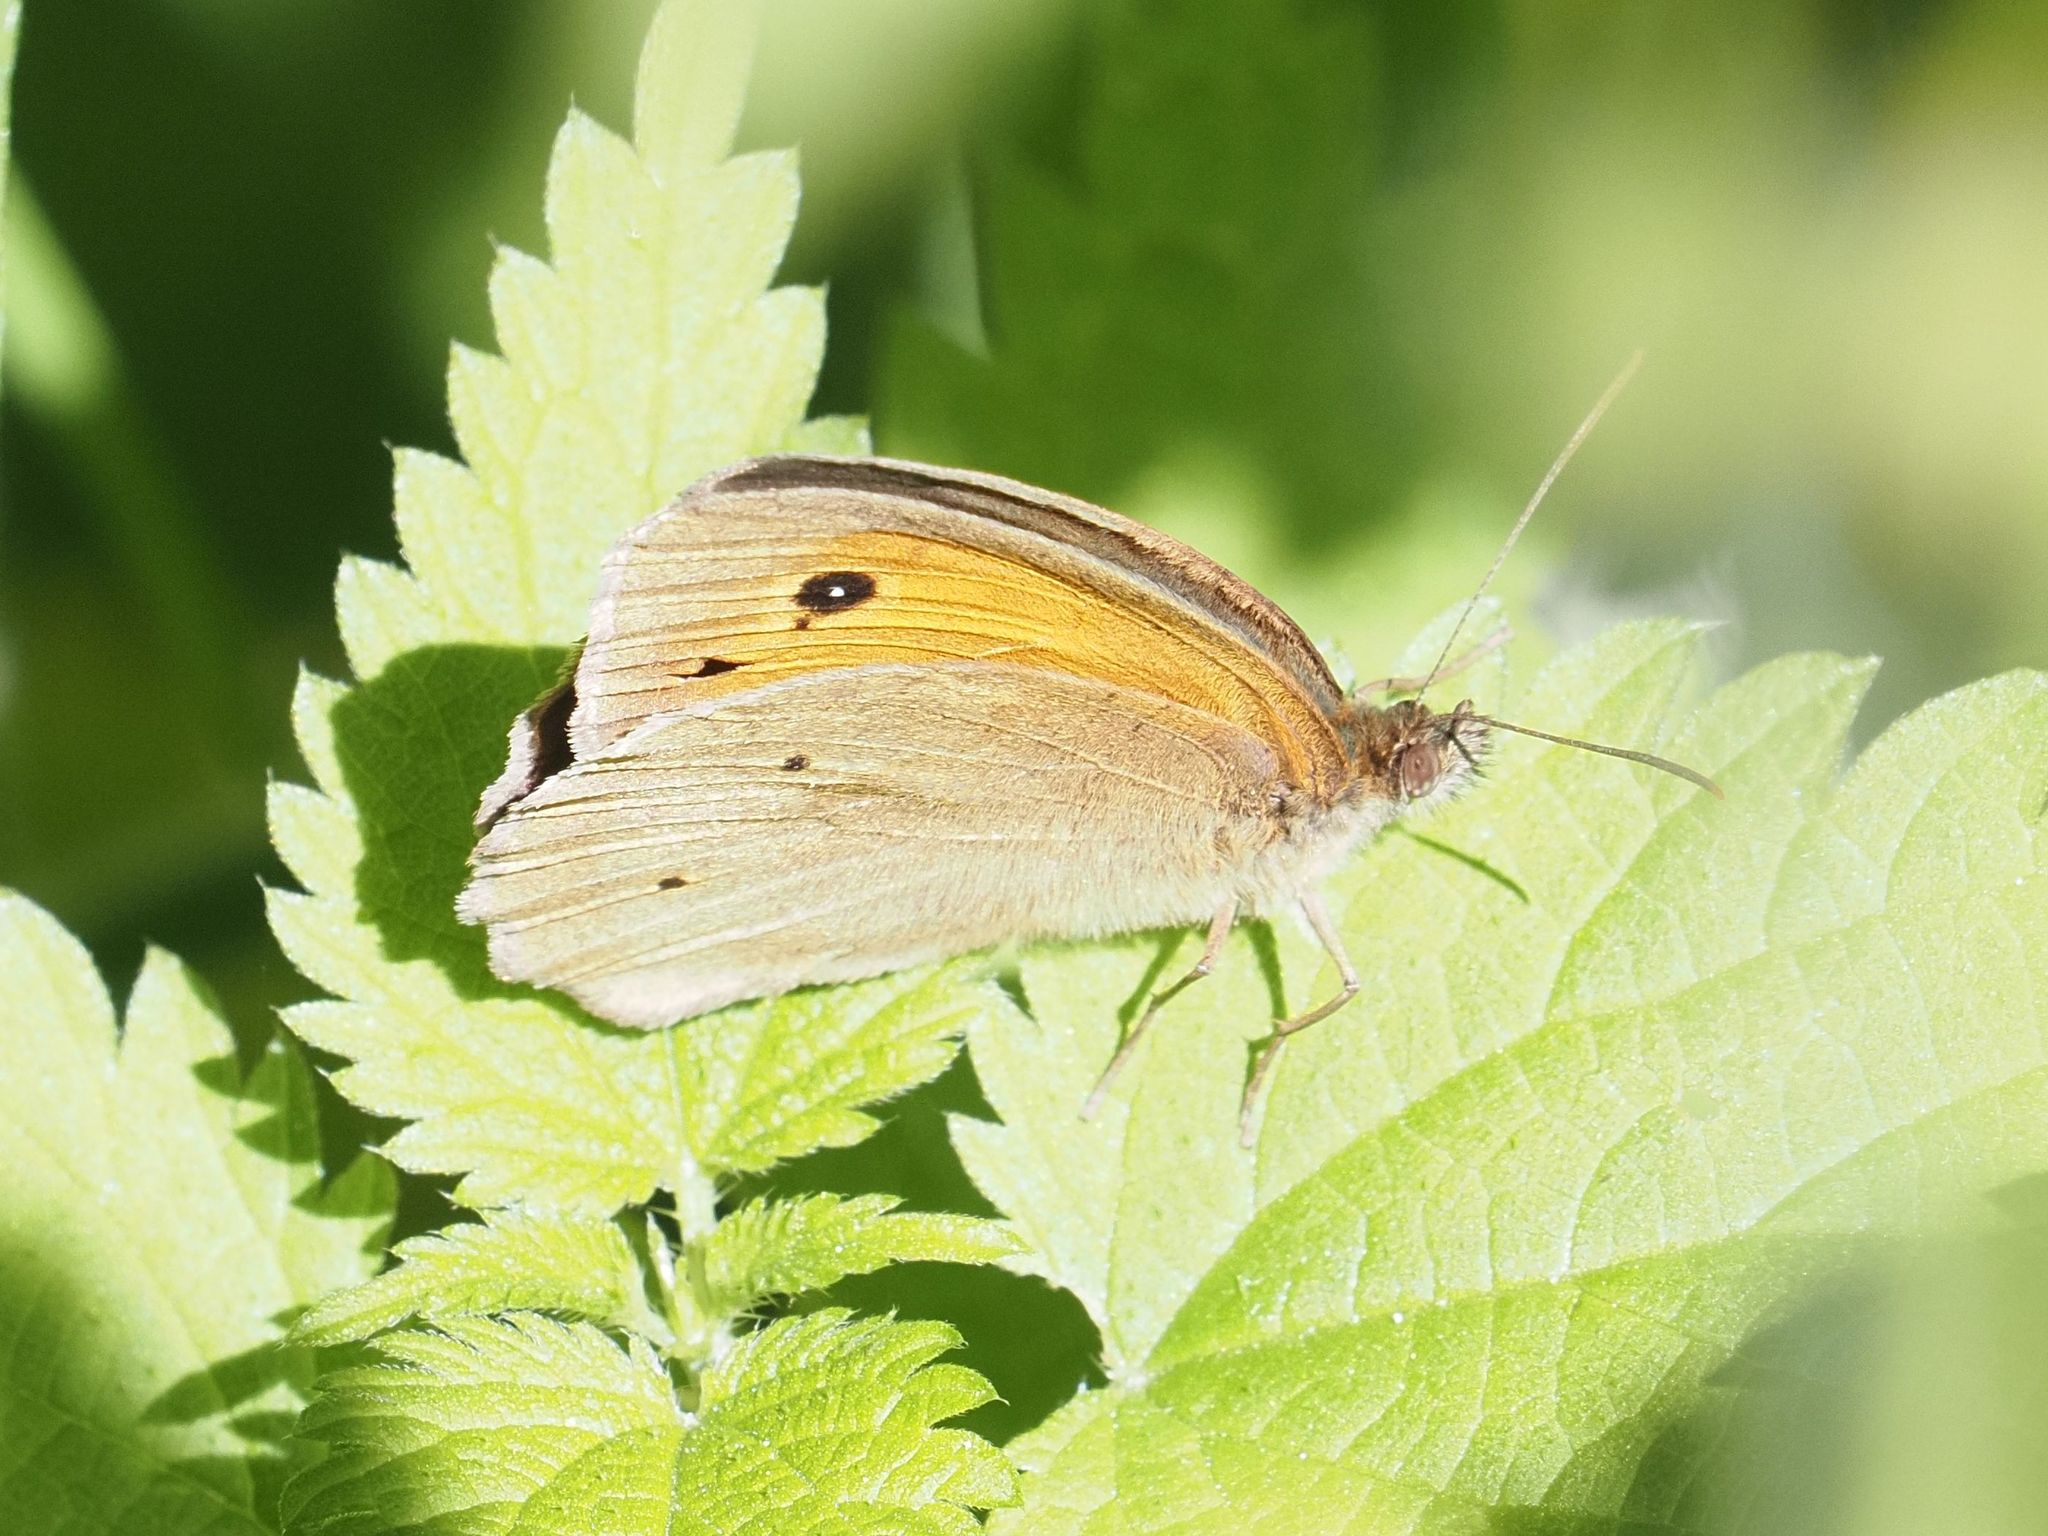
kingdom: Animalia
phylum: Arthropoda
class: Insecta
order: Lepidoptera
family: Nymphalidae
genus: Maniola
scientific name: Maniola jurtina
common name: Meadow brown
